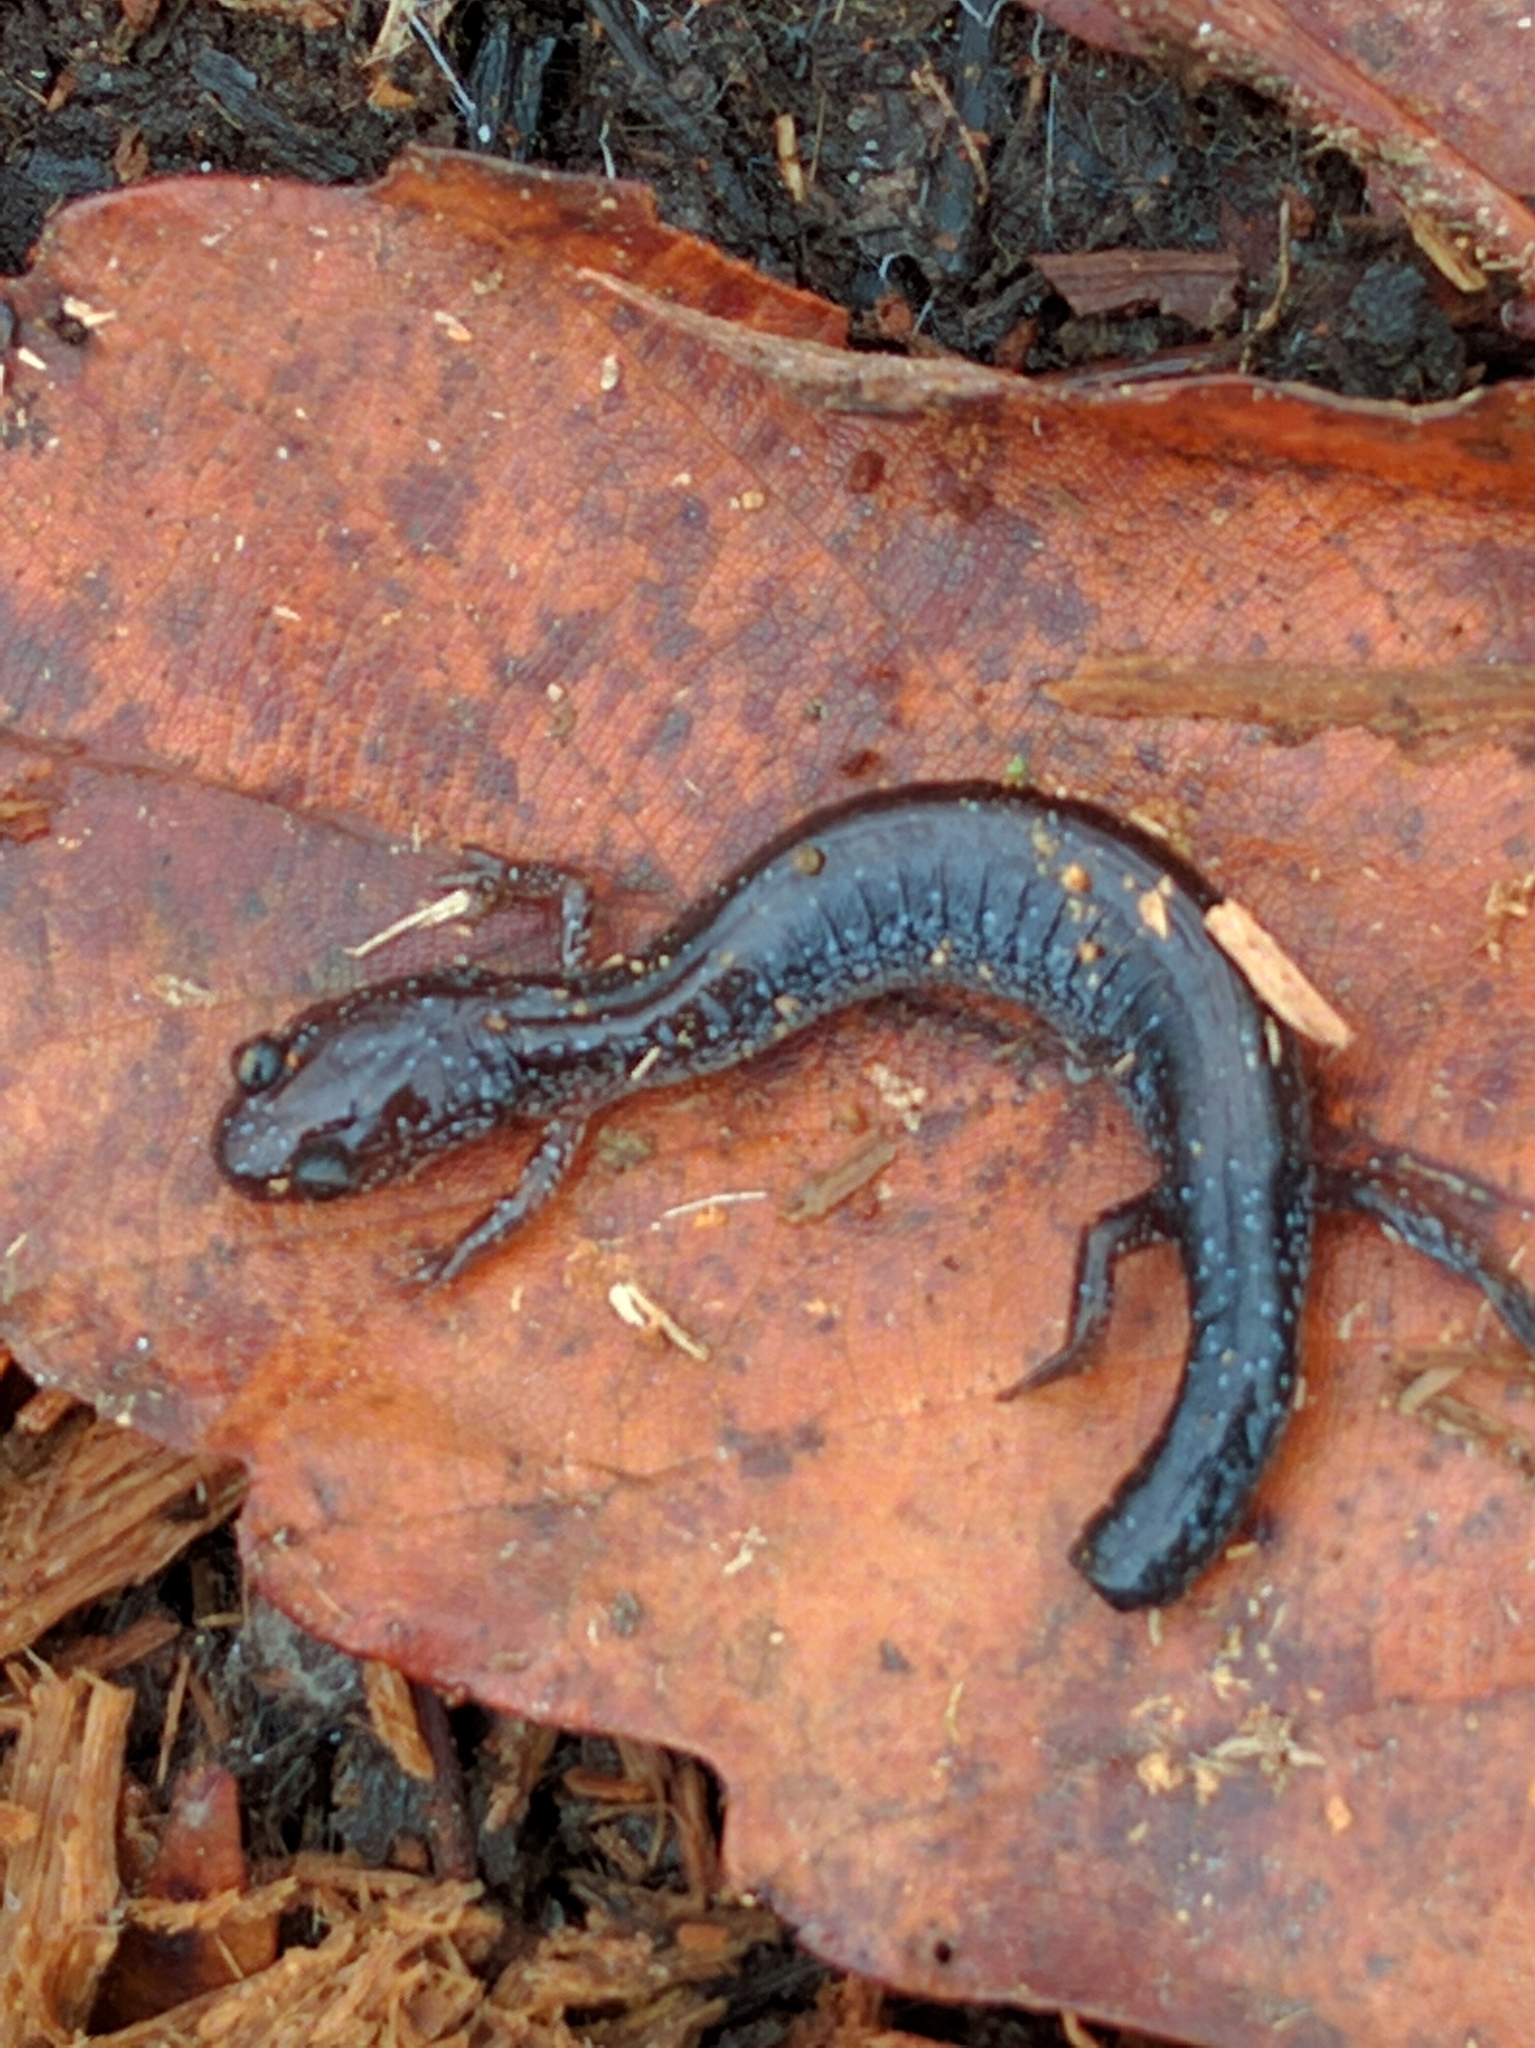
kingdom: Animalia
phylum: Chordata
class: Amphibia
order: Caudata
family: Plethodontidae
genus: Plethodon
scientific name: Plethodon cinereus
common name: Redback salamander
